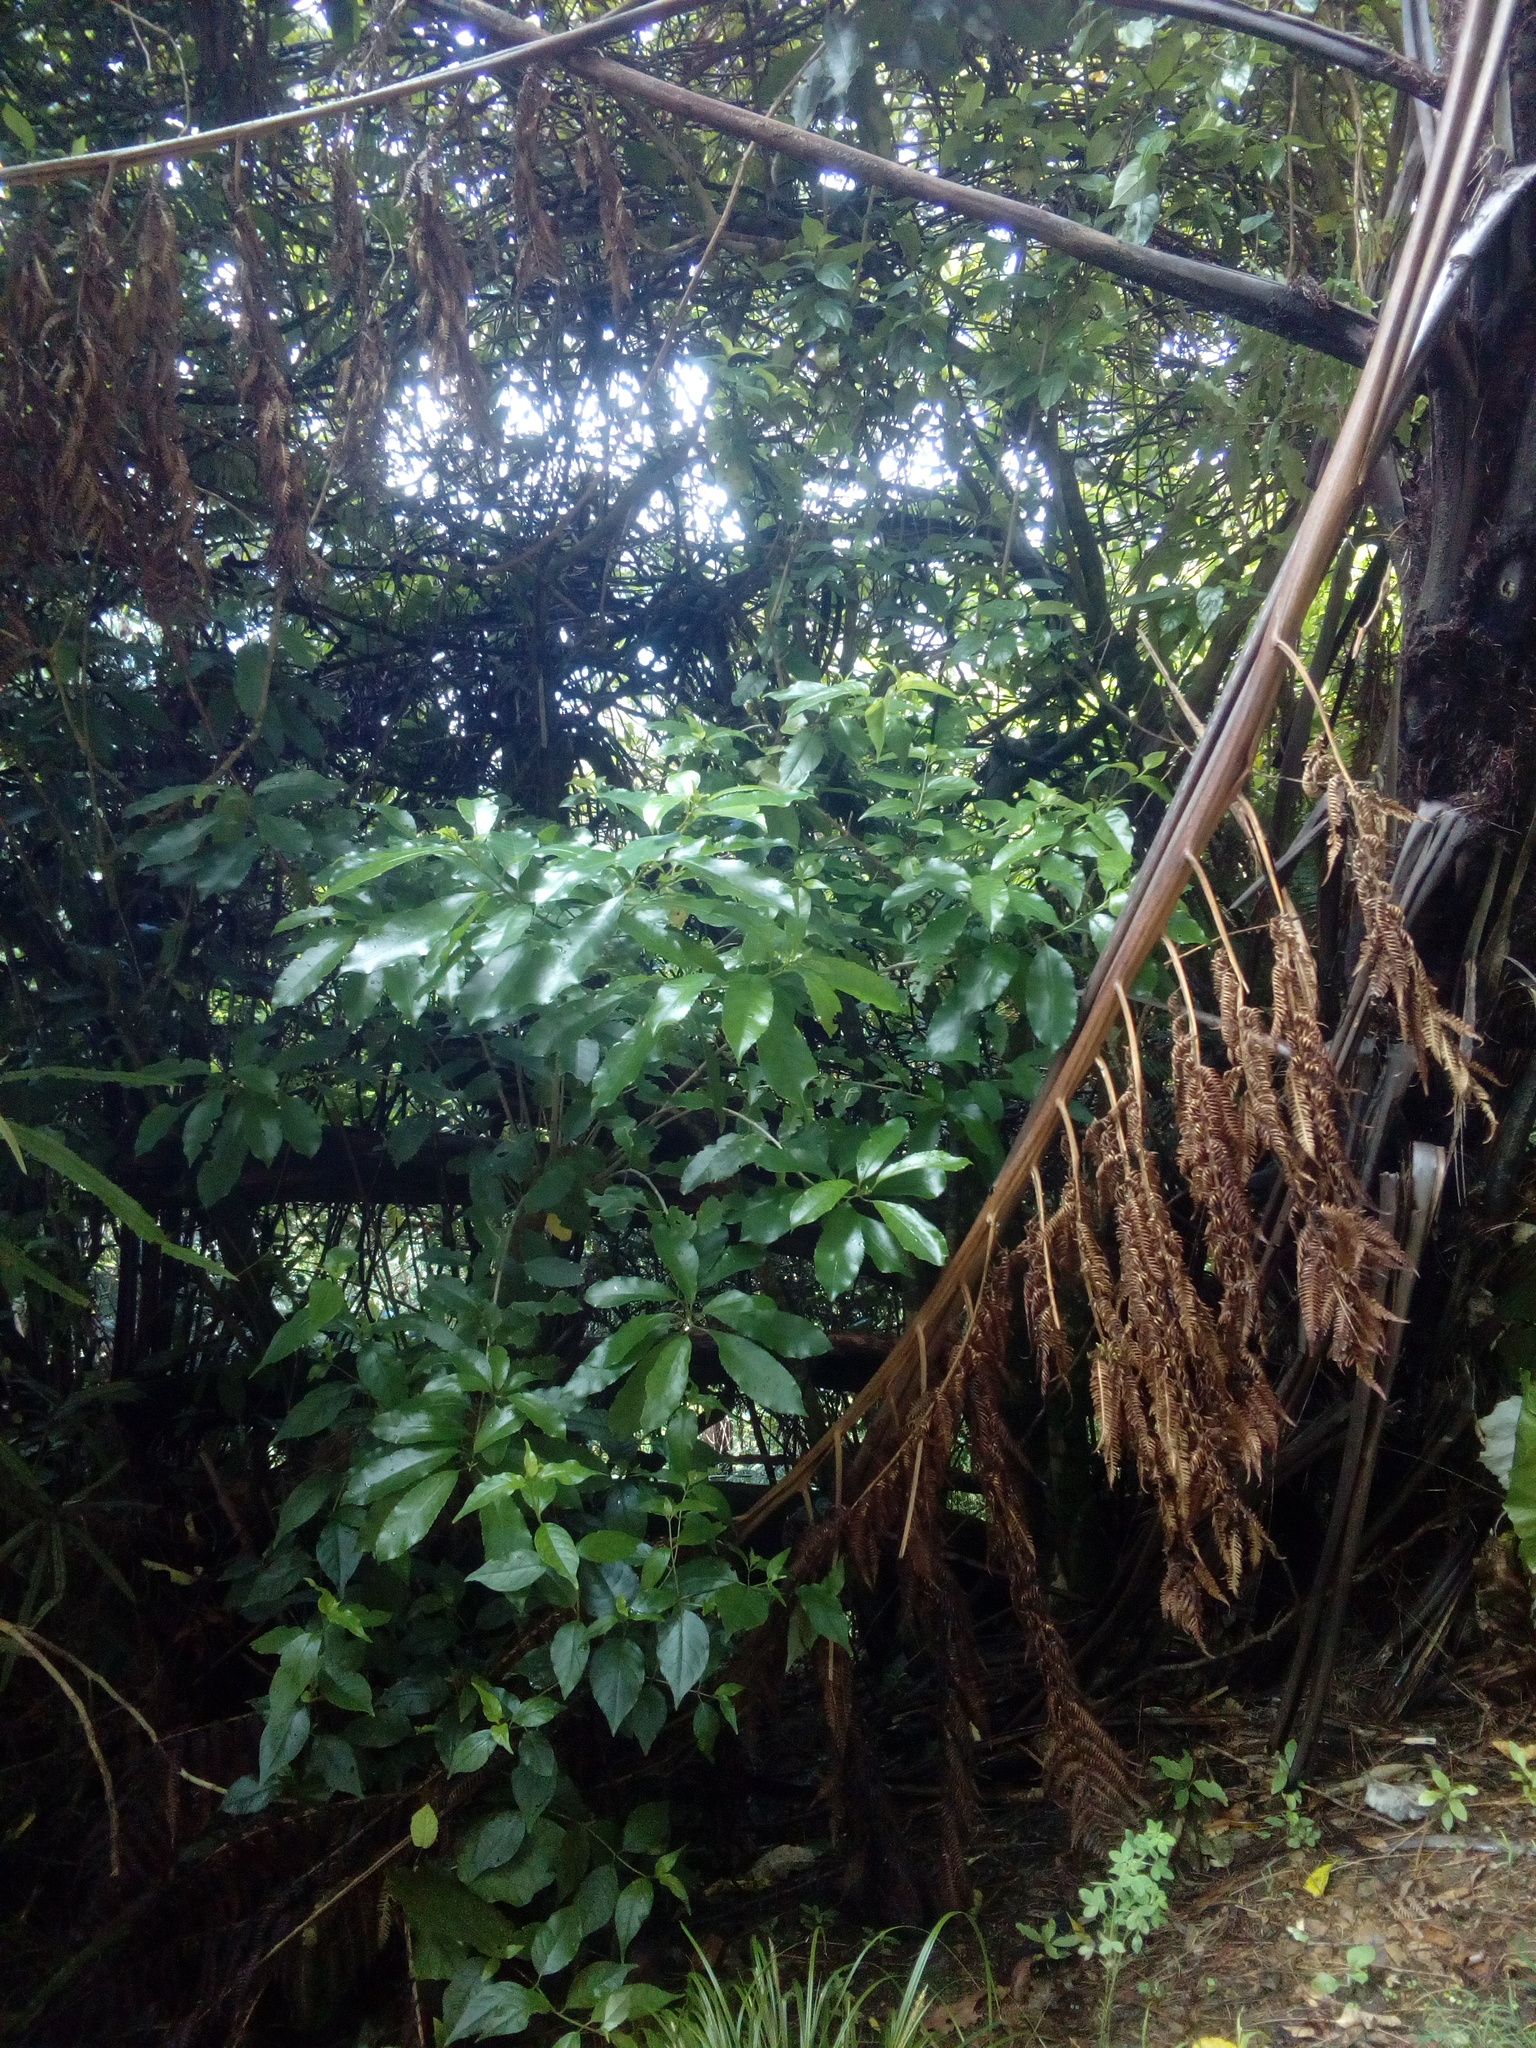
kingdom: Plantae
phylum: Tracheophyta
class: Magnoliopsida
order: Malpighiales
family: Violaceae
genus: Melicytus
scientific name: Melicytus ramiflorus
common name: Mahoe
